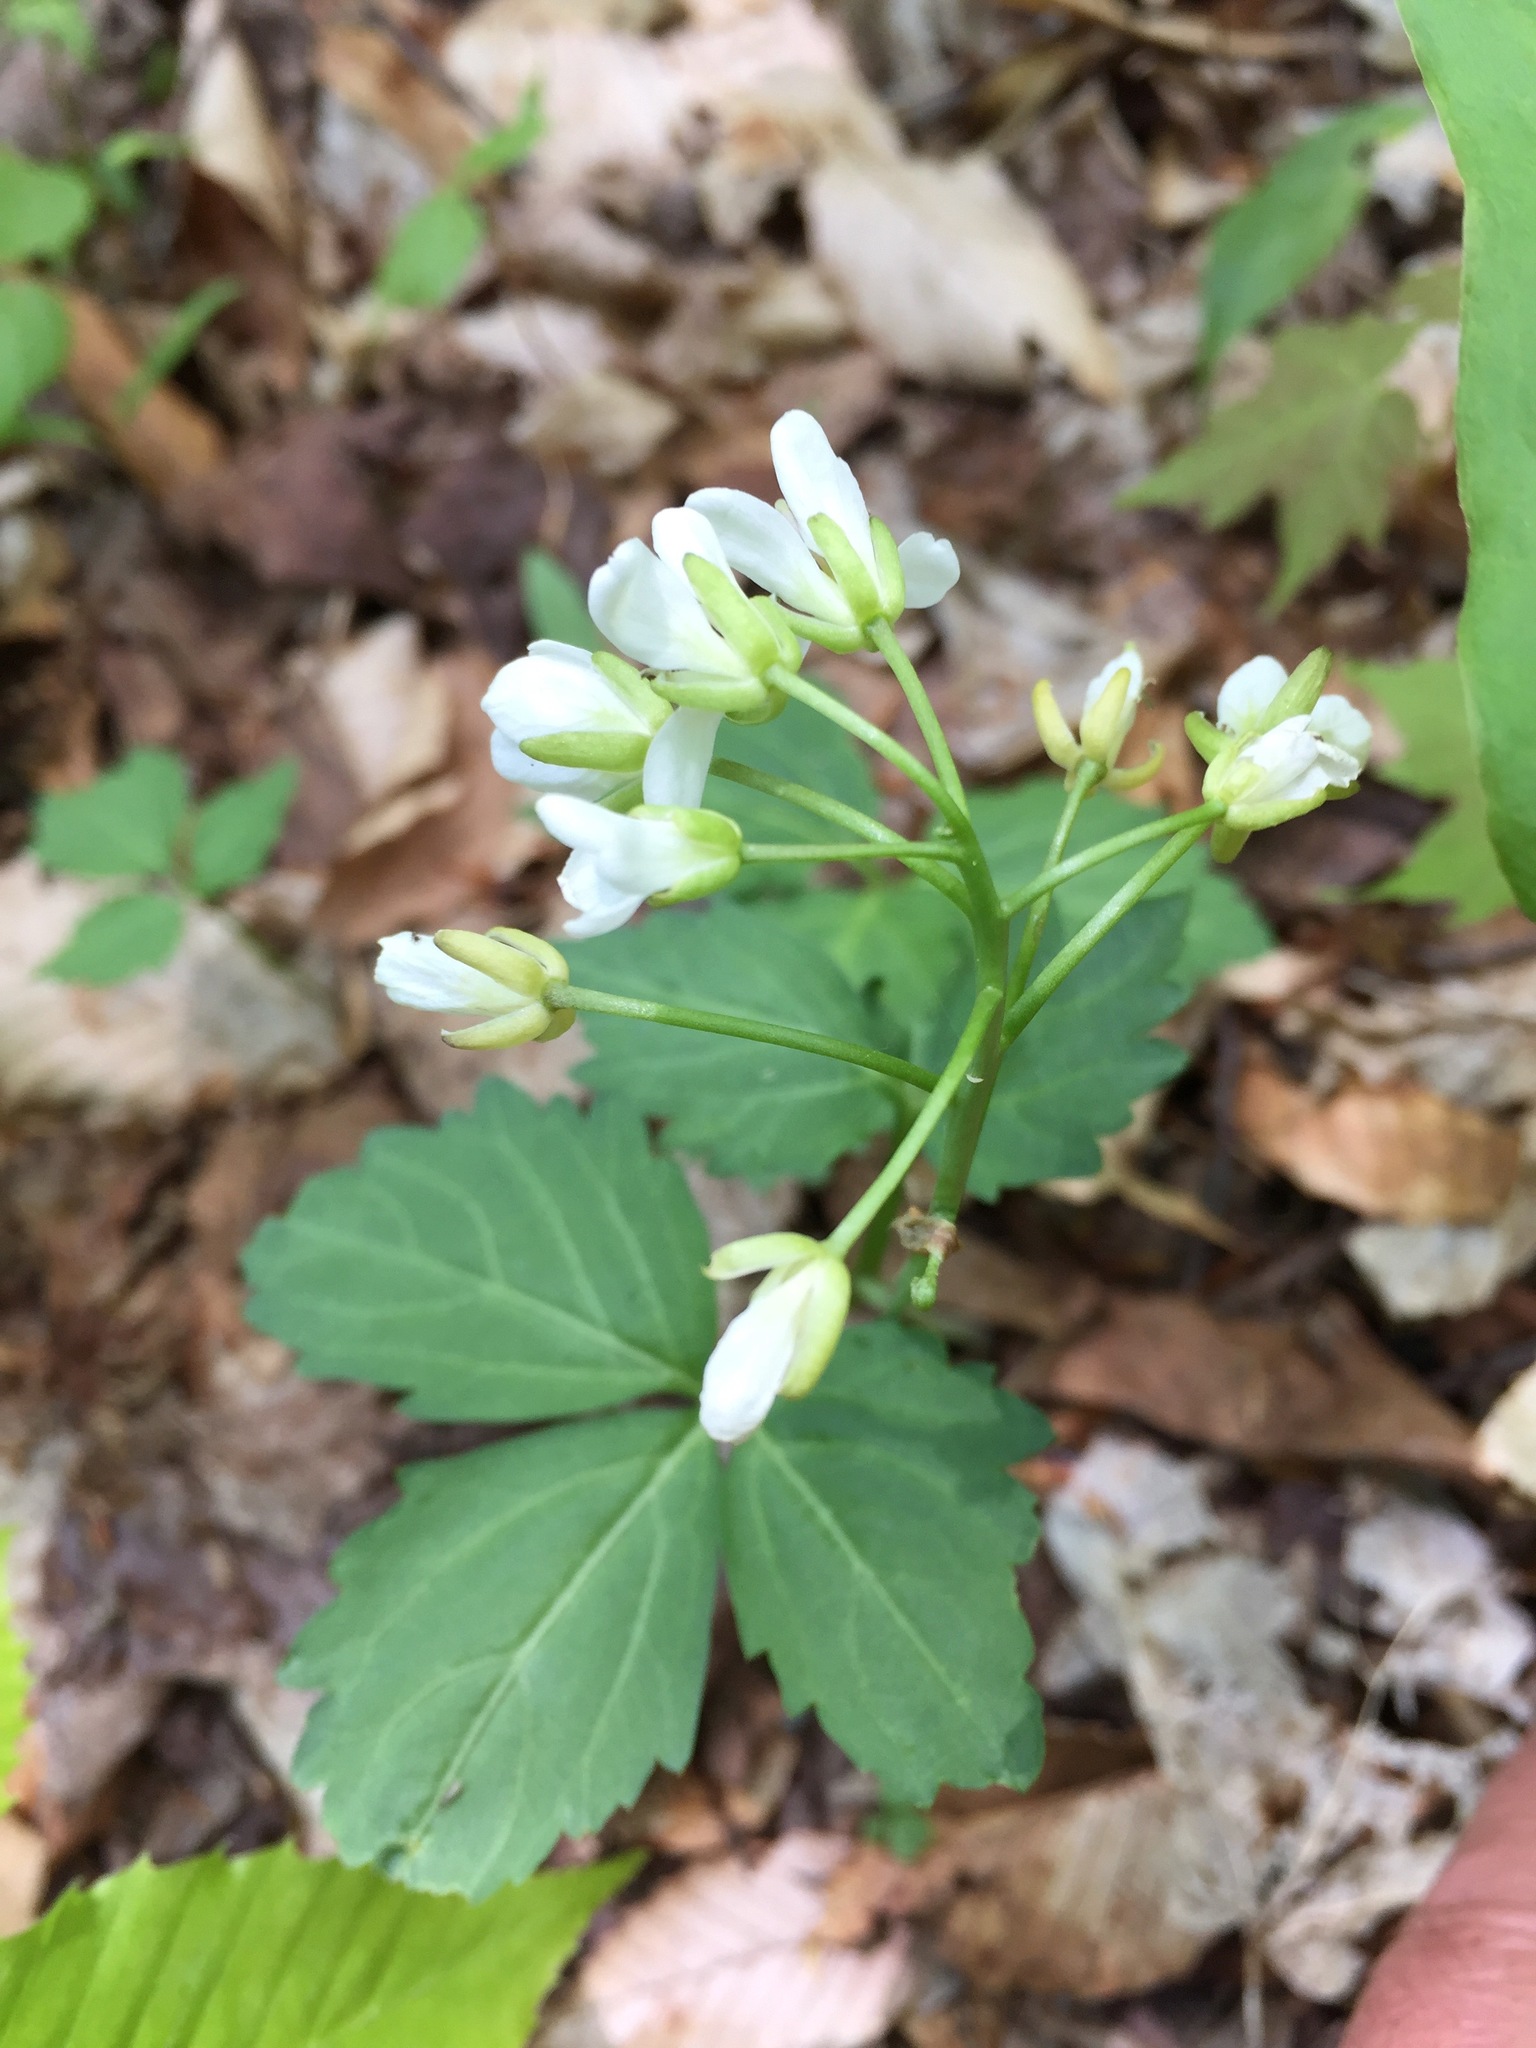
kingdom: Plantae
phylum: Tracheophyta
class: Magnoliopsida
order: Brassicales
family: Brassicaceae
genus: Cardamine
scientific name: Cardamine diphylla
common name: Broad-leaved toothwort
